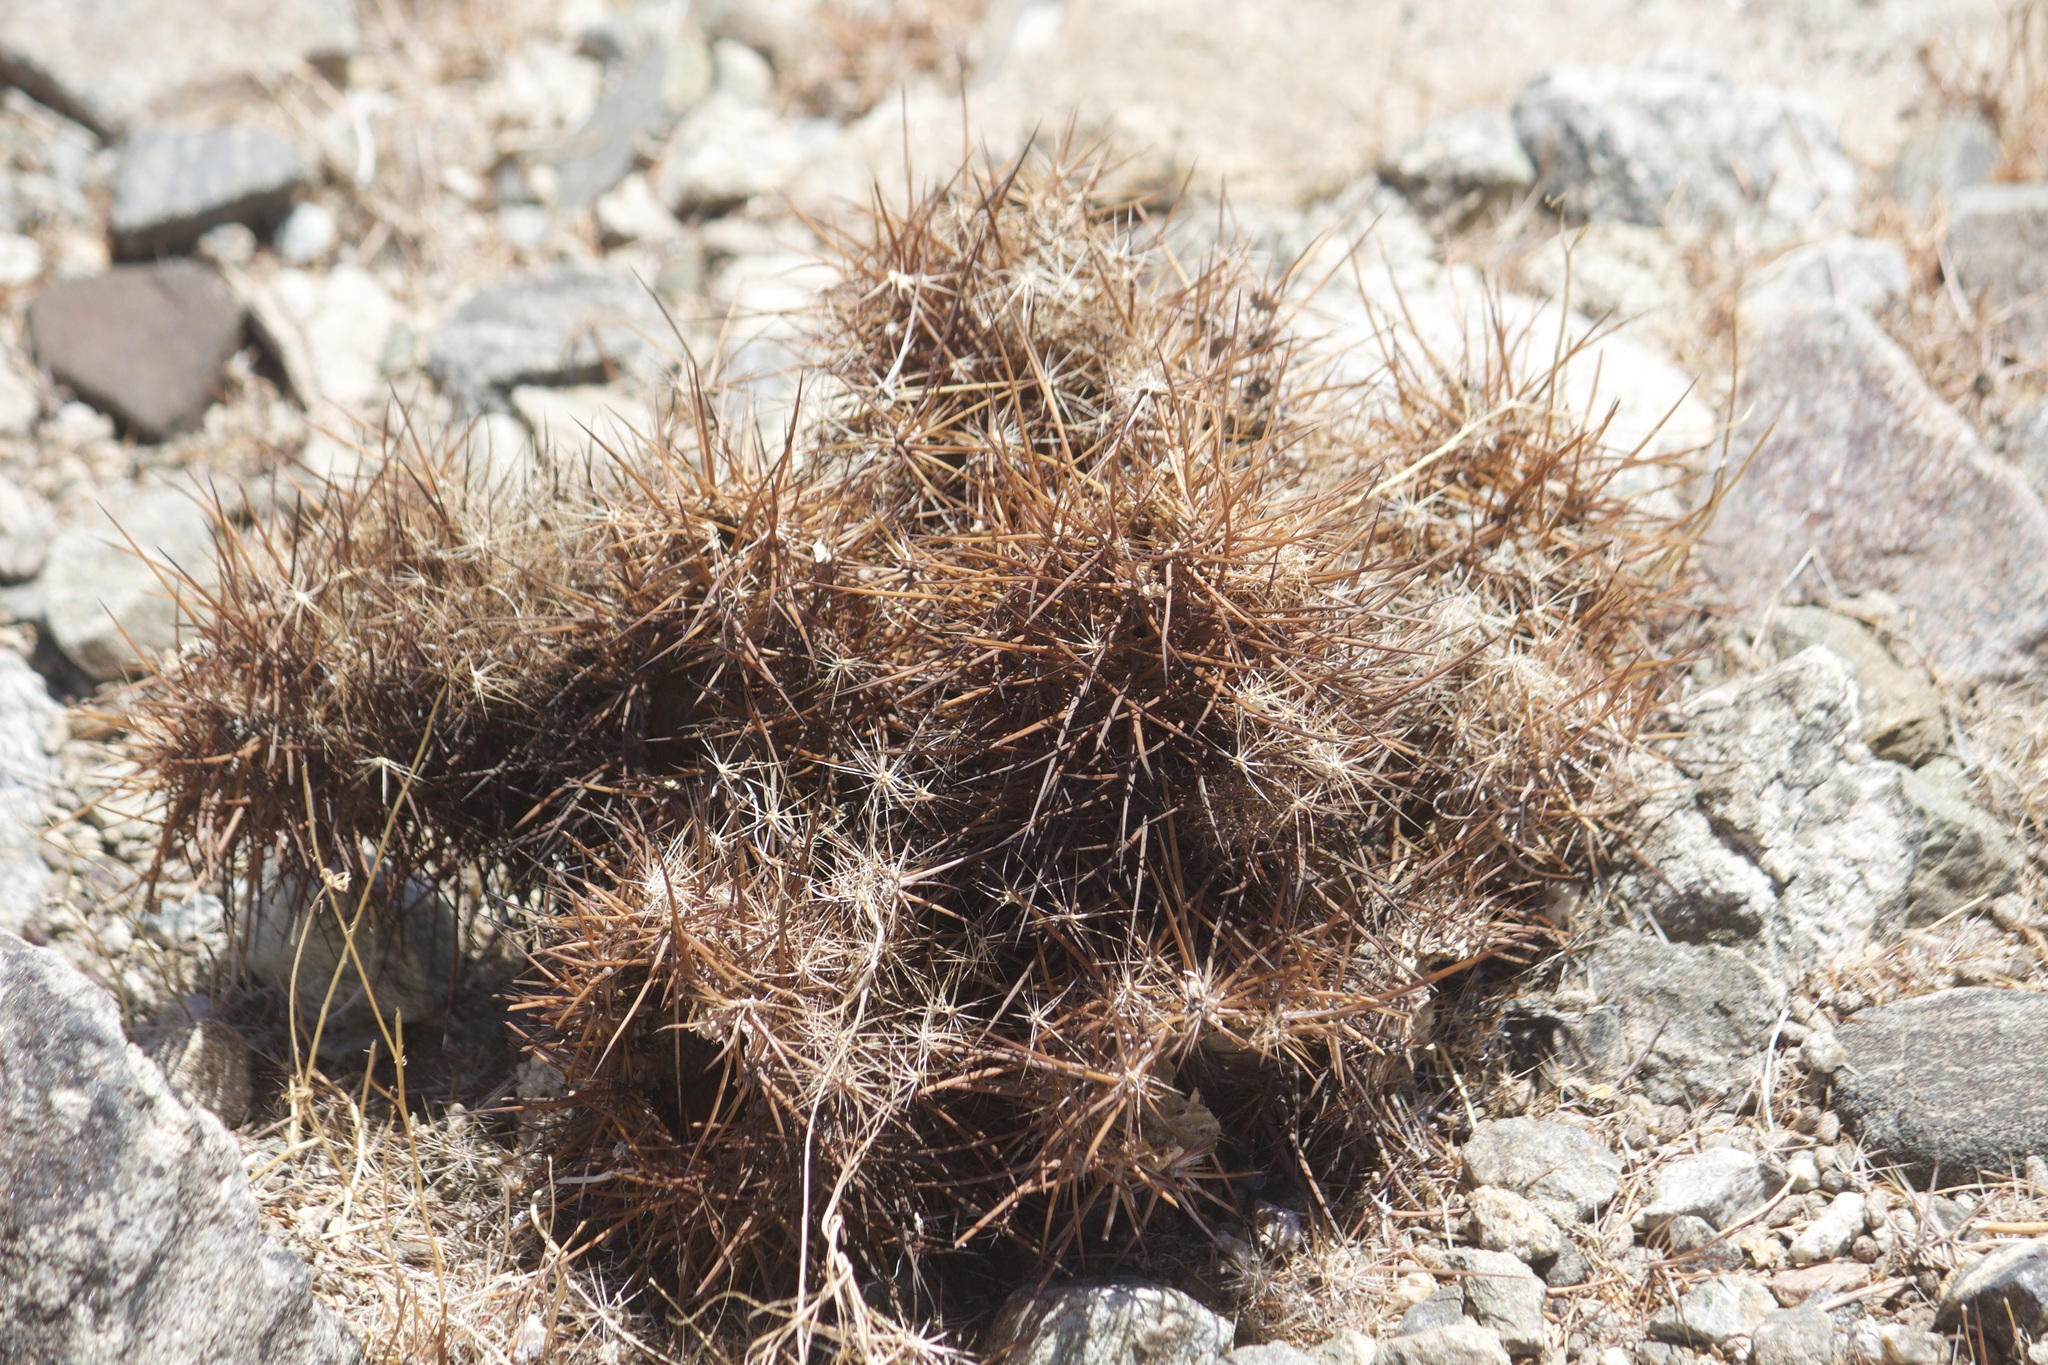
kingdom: Plantae
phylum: Tracheophyta
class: Magnoliopsida
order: Caryophyllales
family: Cactaceae
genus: Echinocereus
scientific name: Echinocereus engelmannii
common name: Engelmann's hedgehog cactus
